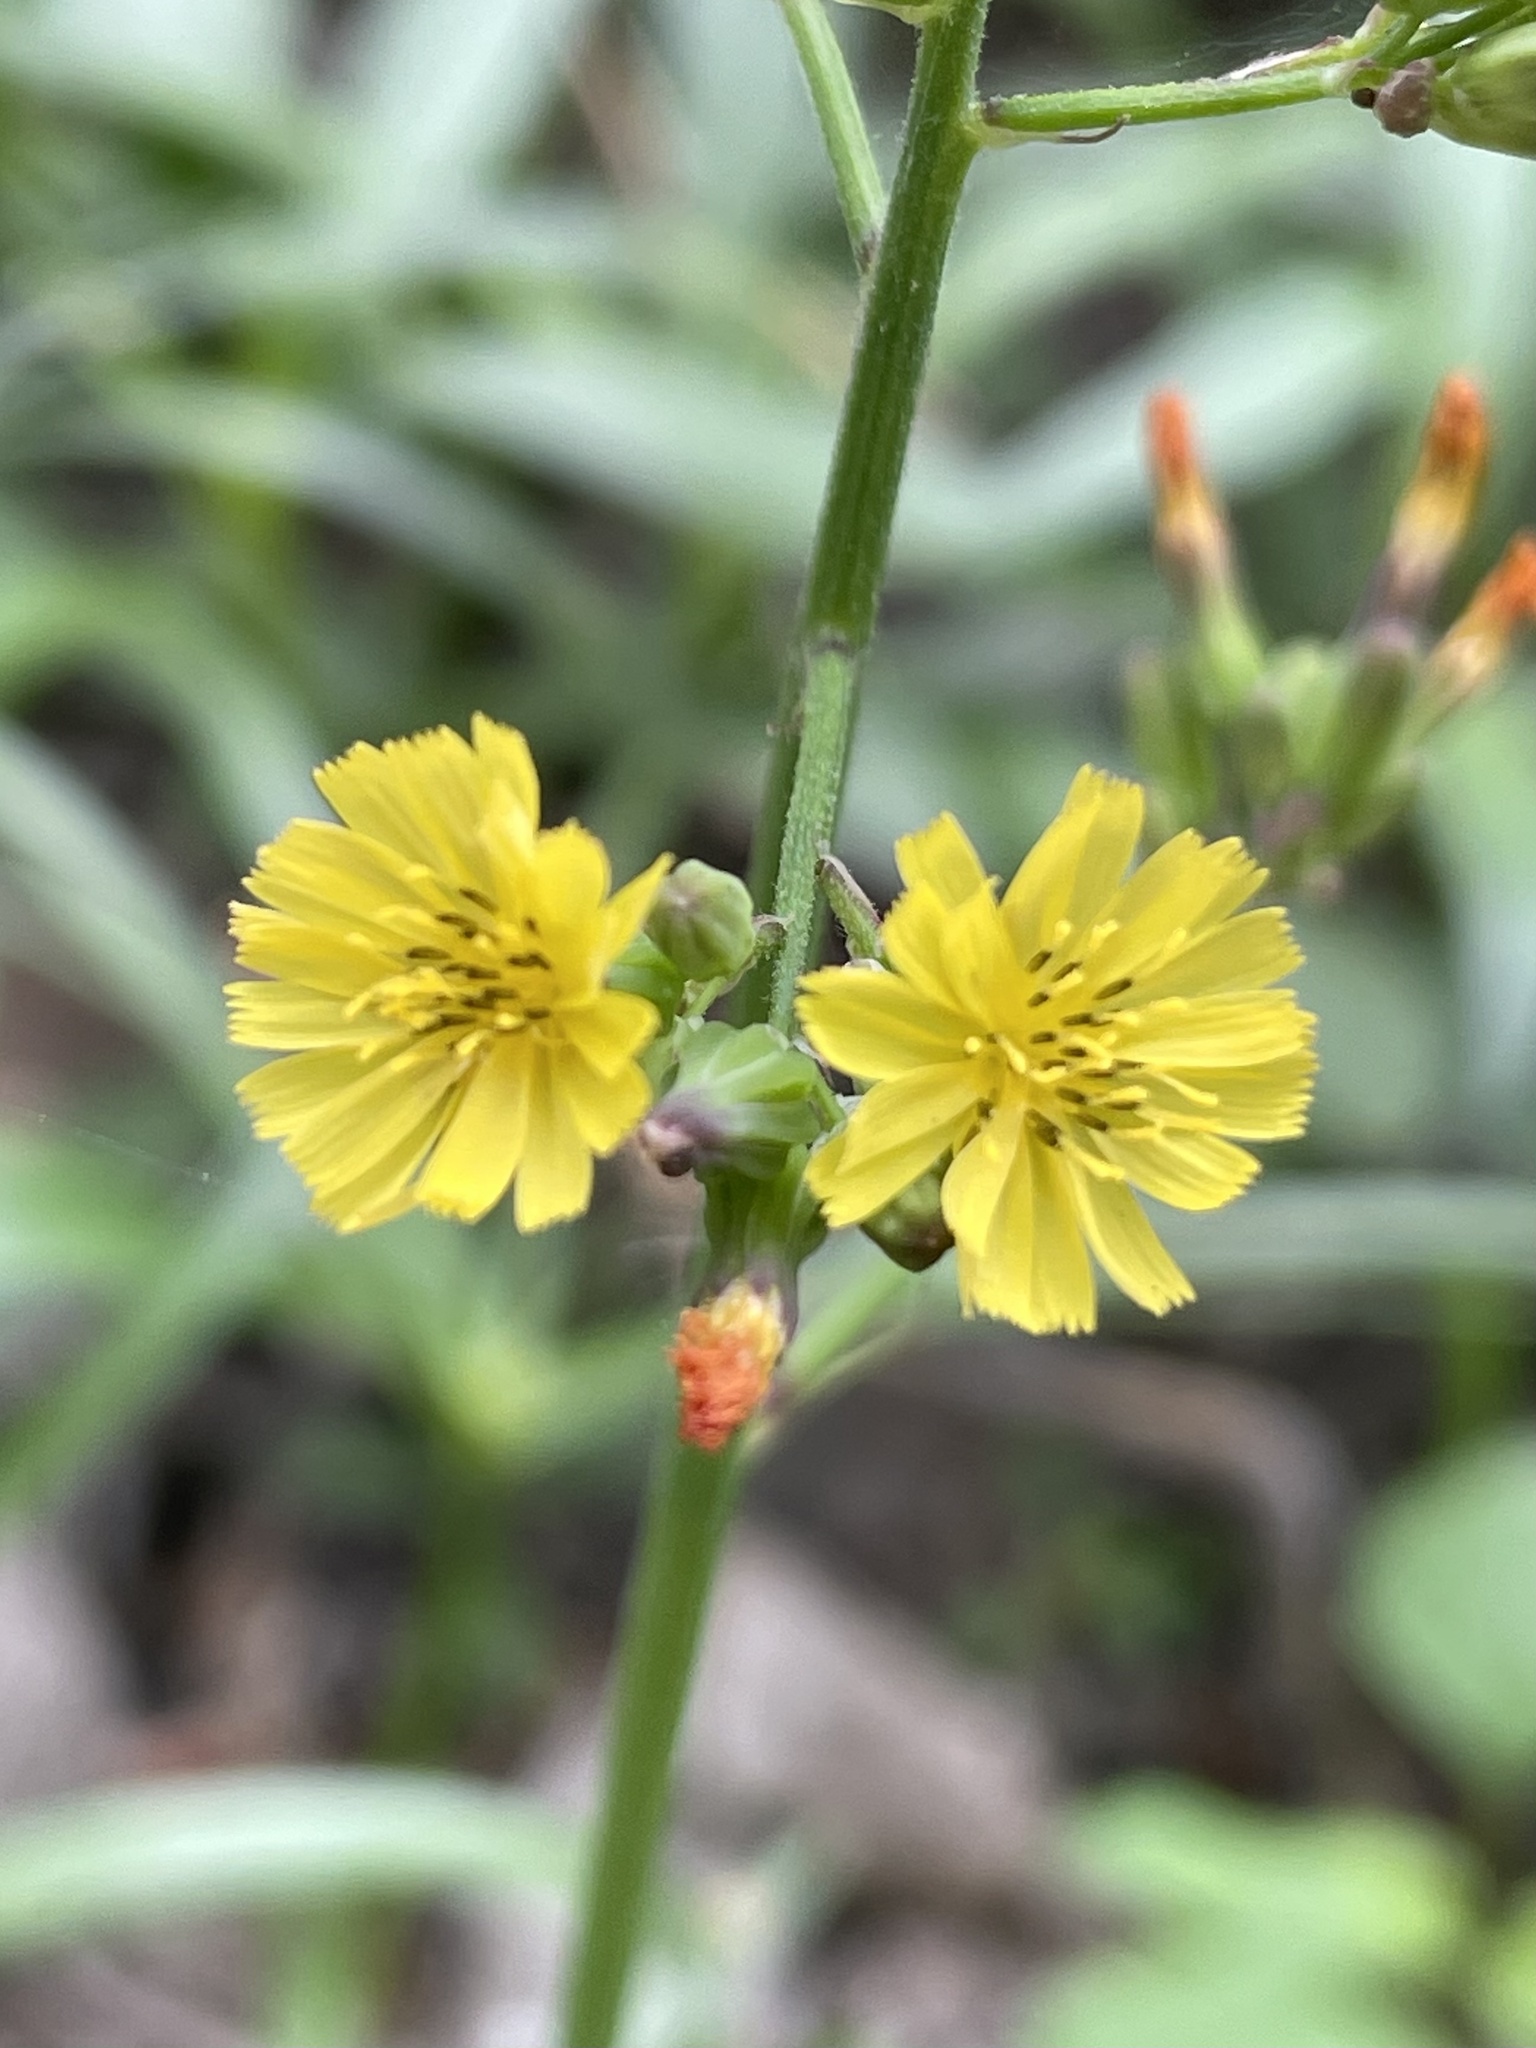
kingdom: Plantae
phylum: Tracheophyta
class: Magnoliopsida
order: Asterales
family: Asteraceae
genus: Youngia
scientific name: Youngia japonica
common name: Oriental false hawksbeard
